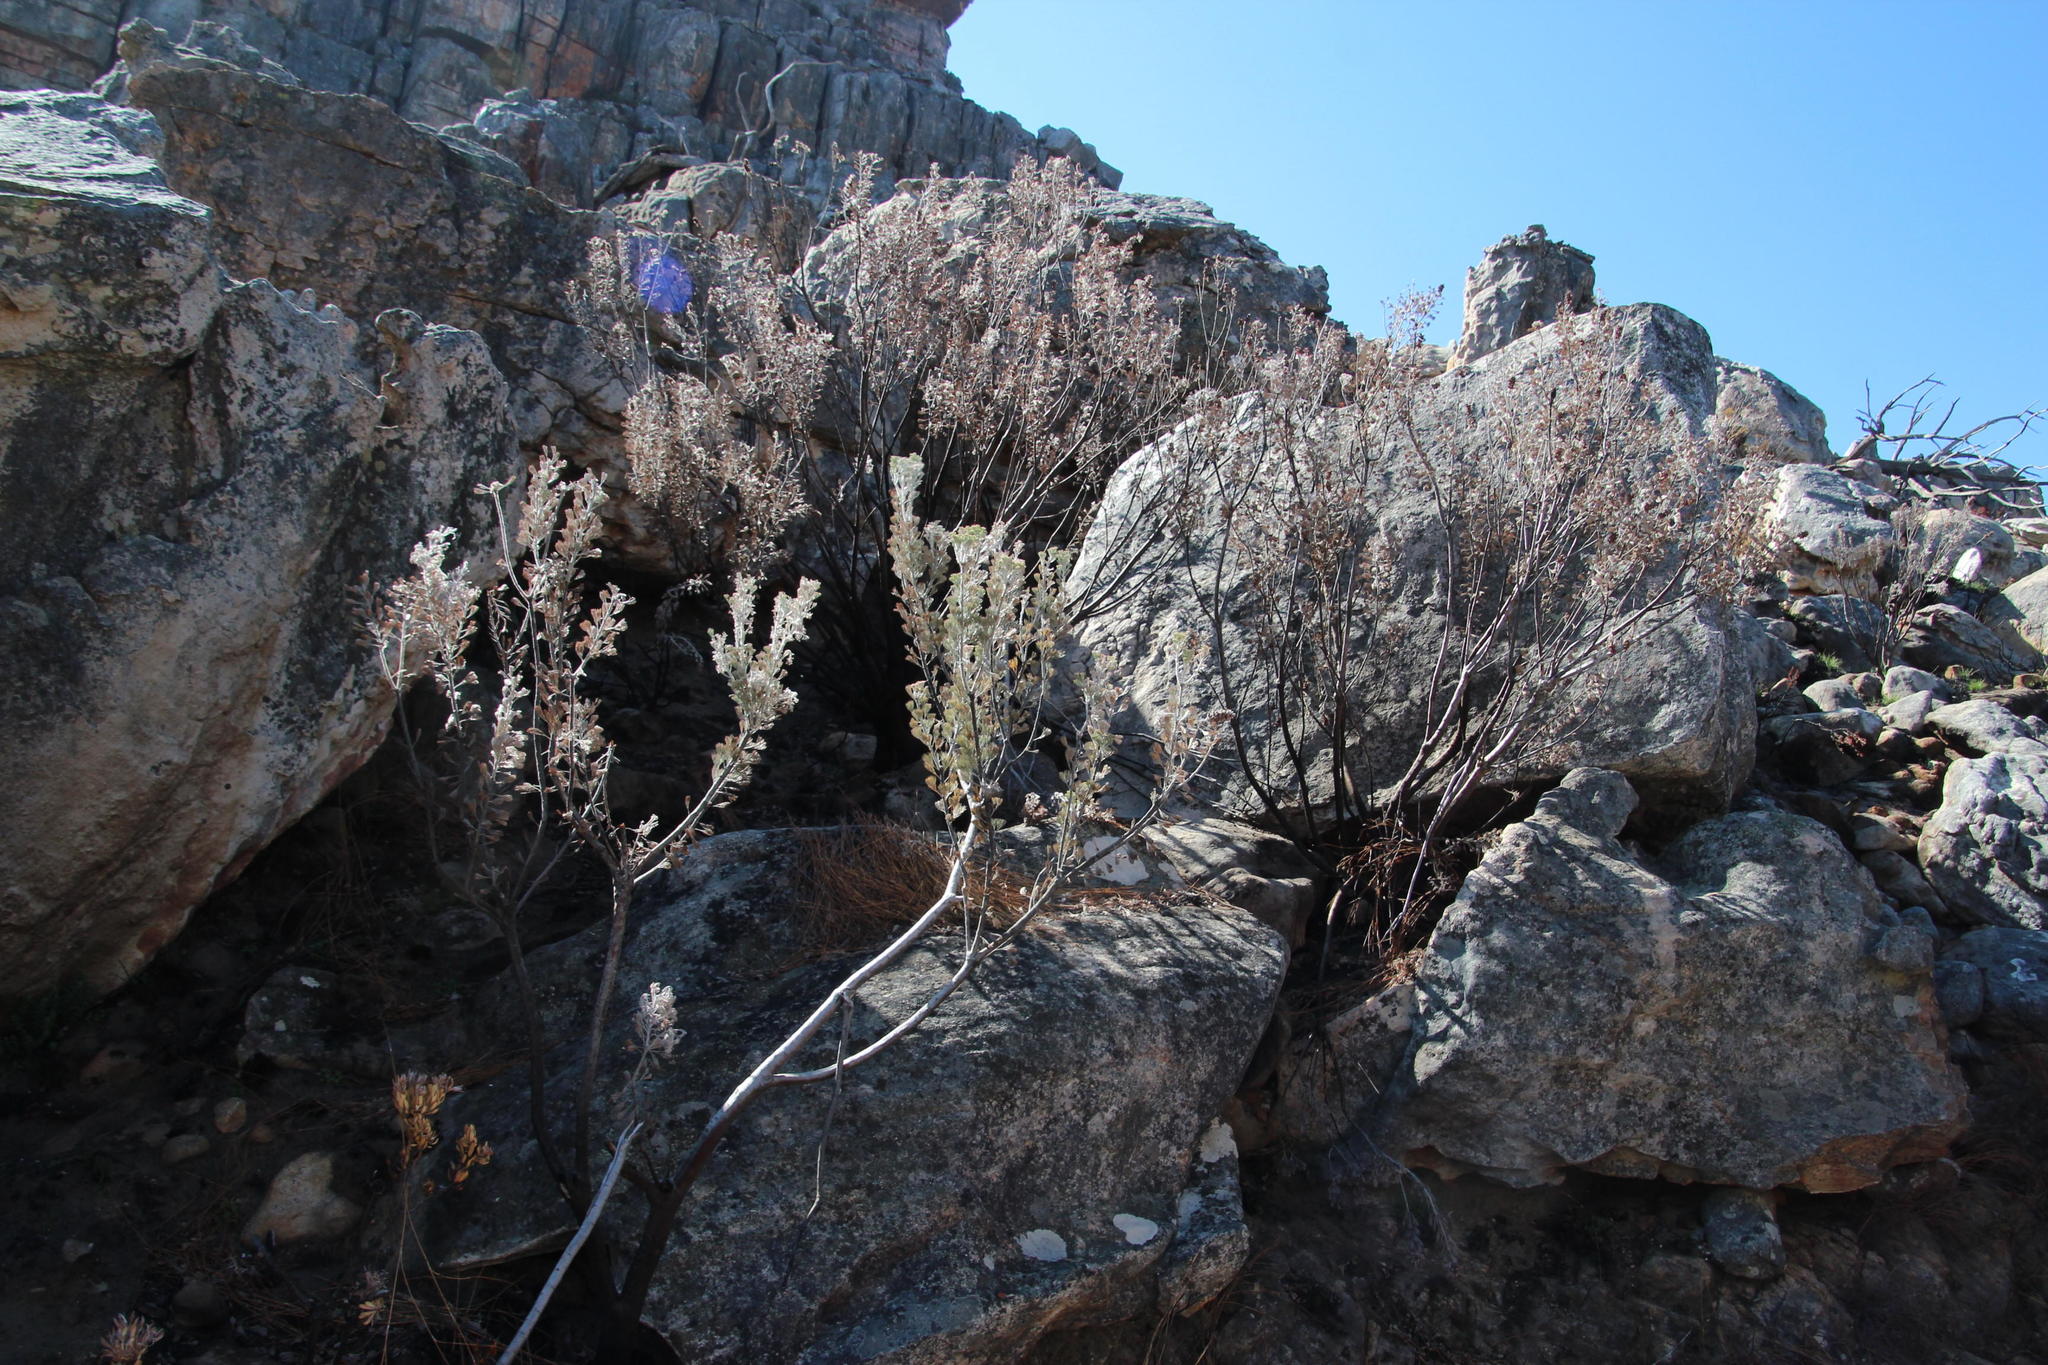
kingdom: Plantae
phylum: Tracheophyta
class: Magnoliopsida
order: Proteales
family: Proteaceae
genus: Paranomus
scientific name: Paranomus tomentosus
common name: Hairy-leaf tree sceptre
